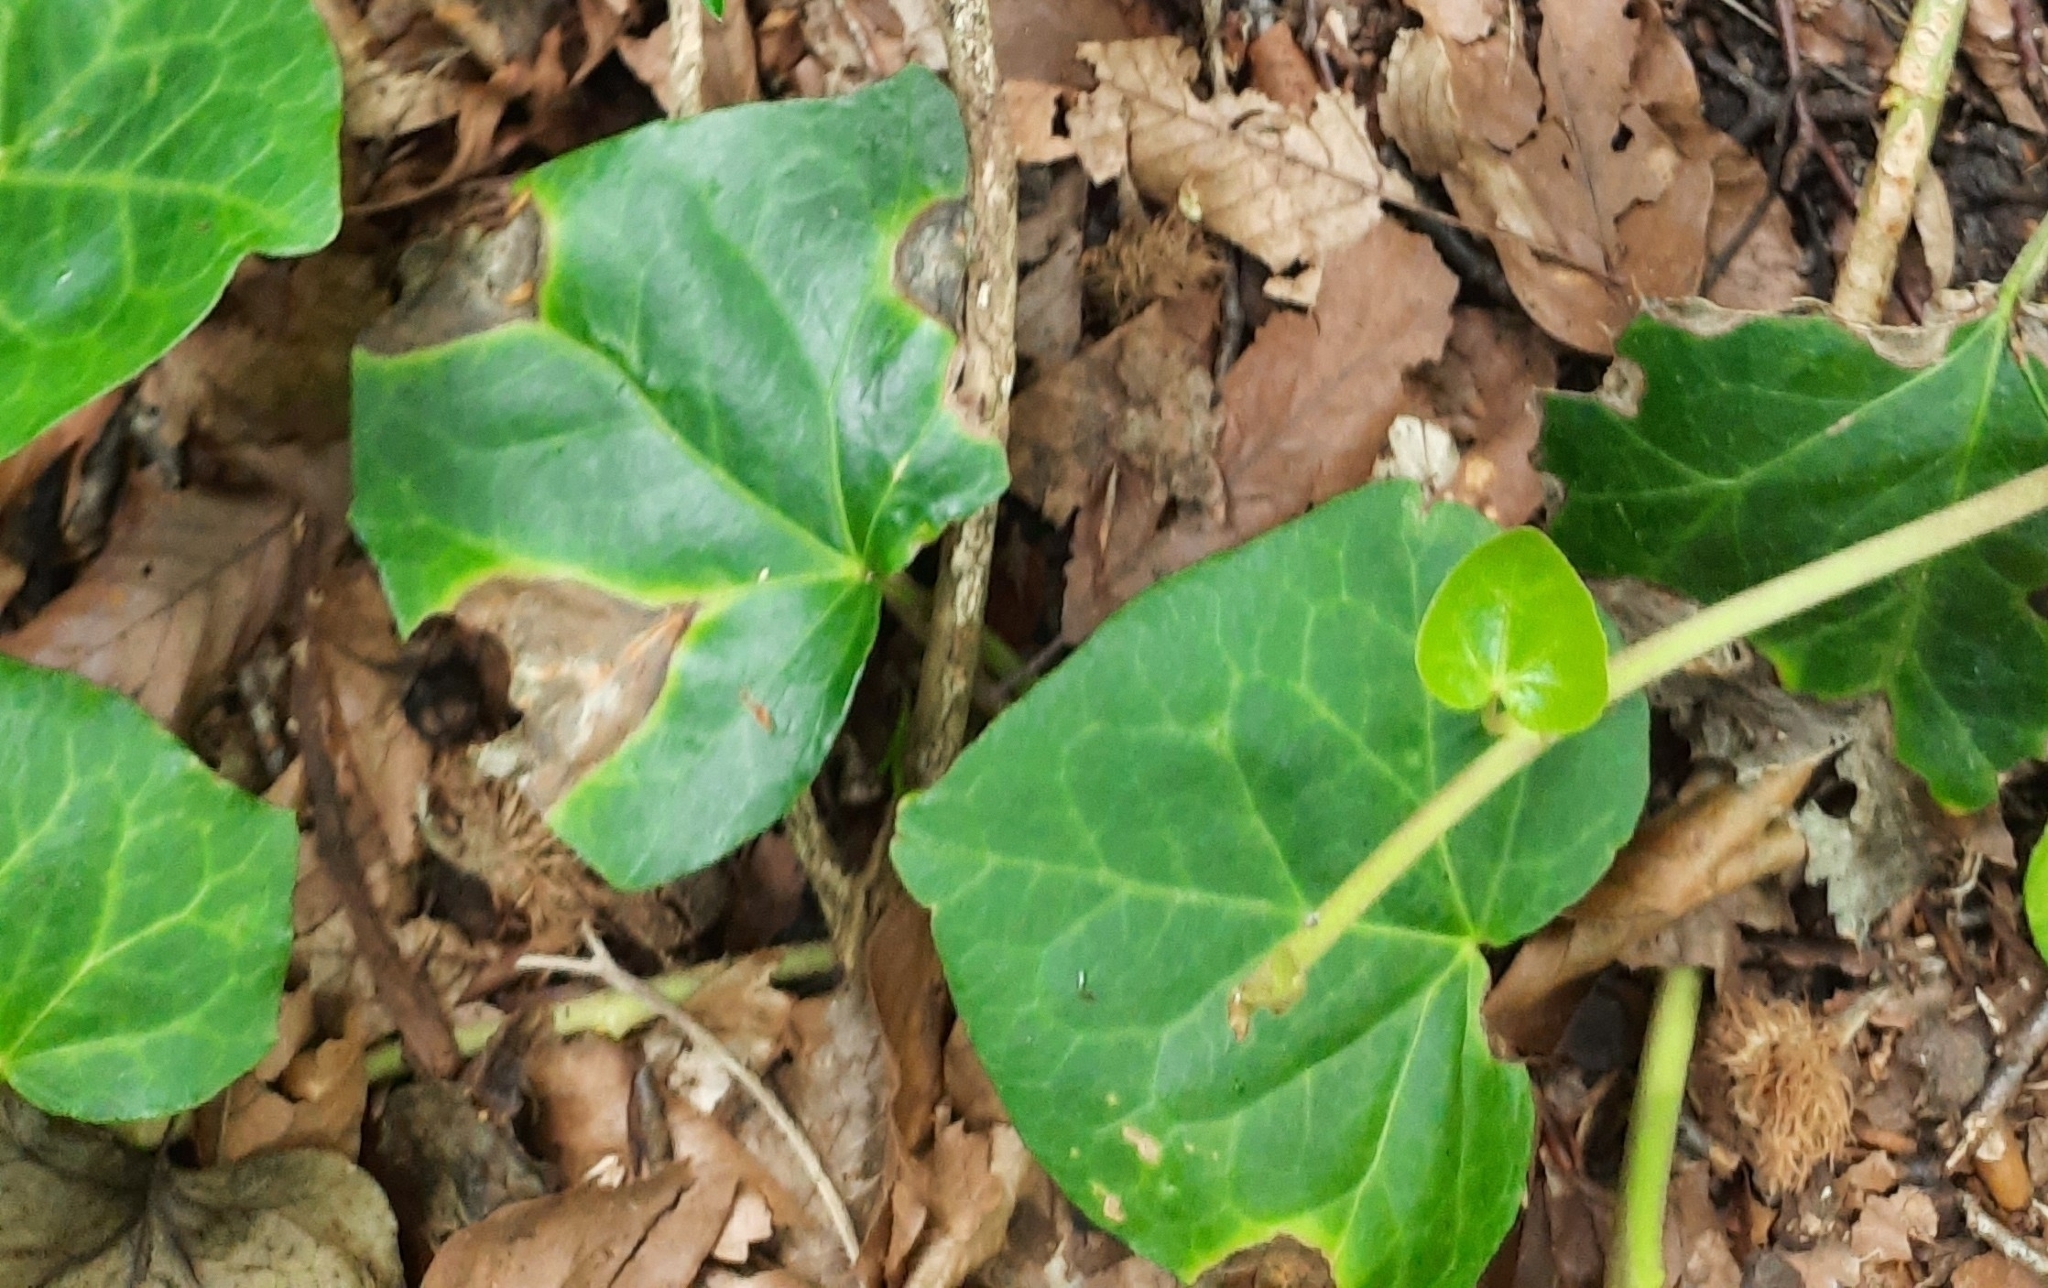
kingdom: Plantae
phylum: Tracheophyta
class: Magnoliopsida
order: Apiales
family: Araliaceae
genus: Hedera
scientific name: Hedera colchica
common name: Persian ivy
